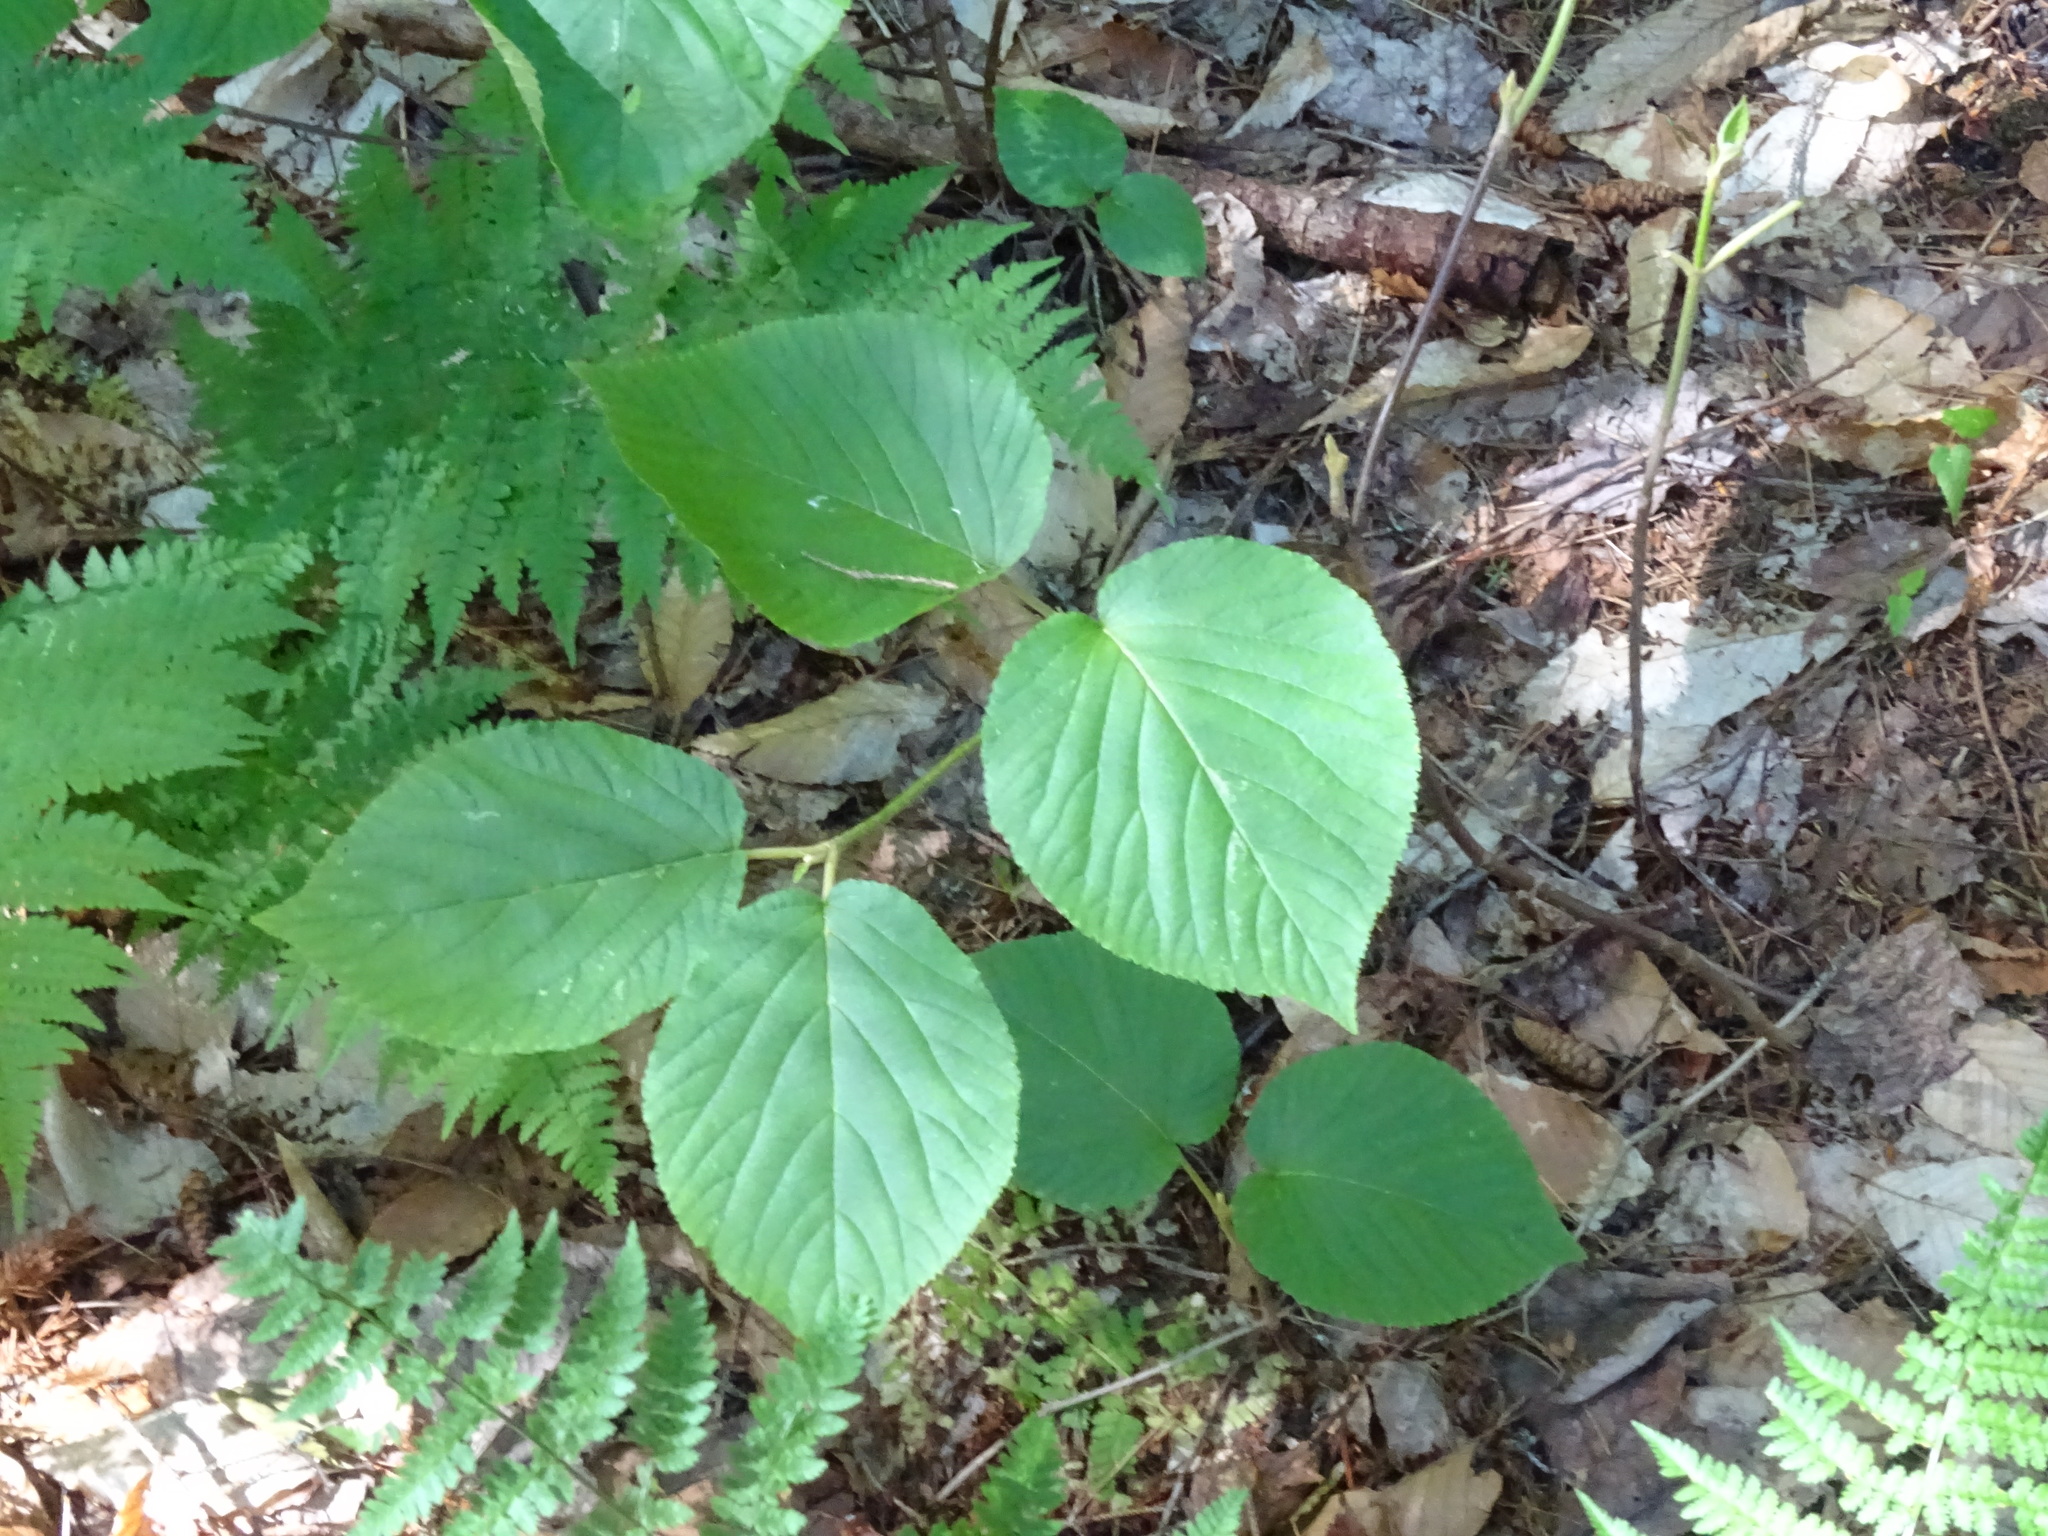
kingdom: Plantae
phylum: Tracheophyta
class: Magnoliopsida
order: Dipsacales
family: Viburnaceae
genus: Viburnum
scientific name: Viburnum lantanoides
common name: Hobblebush
